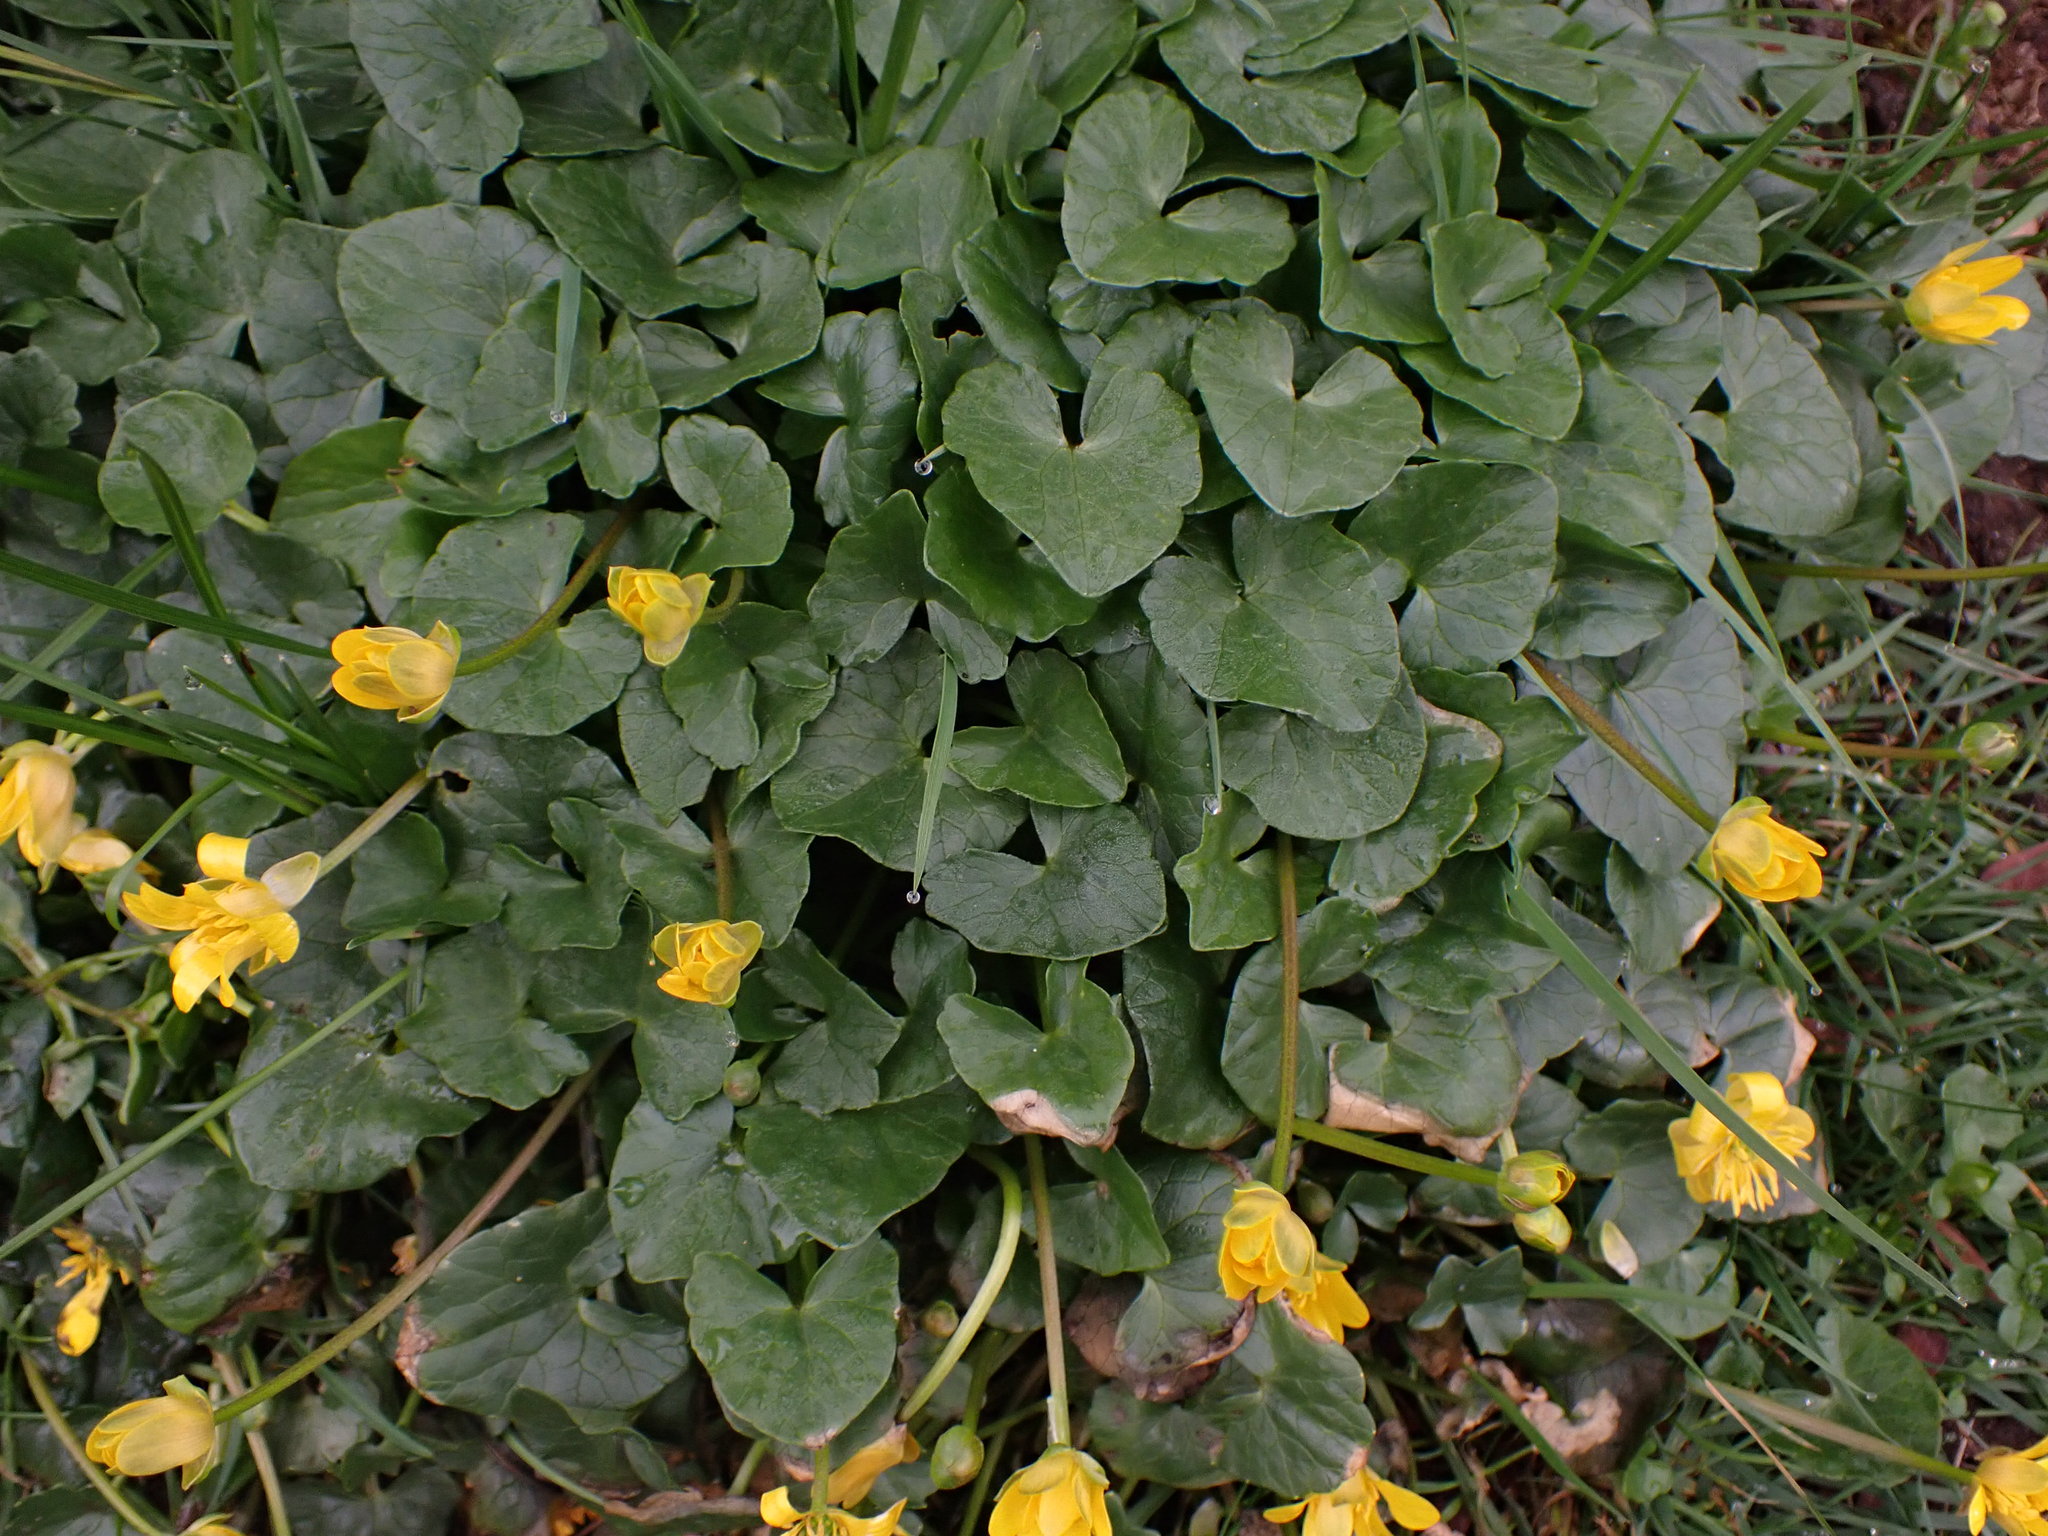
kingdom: Plantae
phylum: Tracheophyta
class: Magnoliopsida
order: Ranunculales
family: Ranunculaceae
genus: Ficaria
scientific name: Ficaria verna
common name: Lesser celandine
